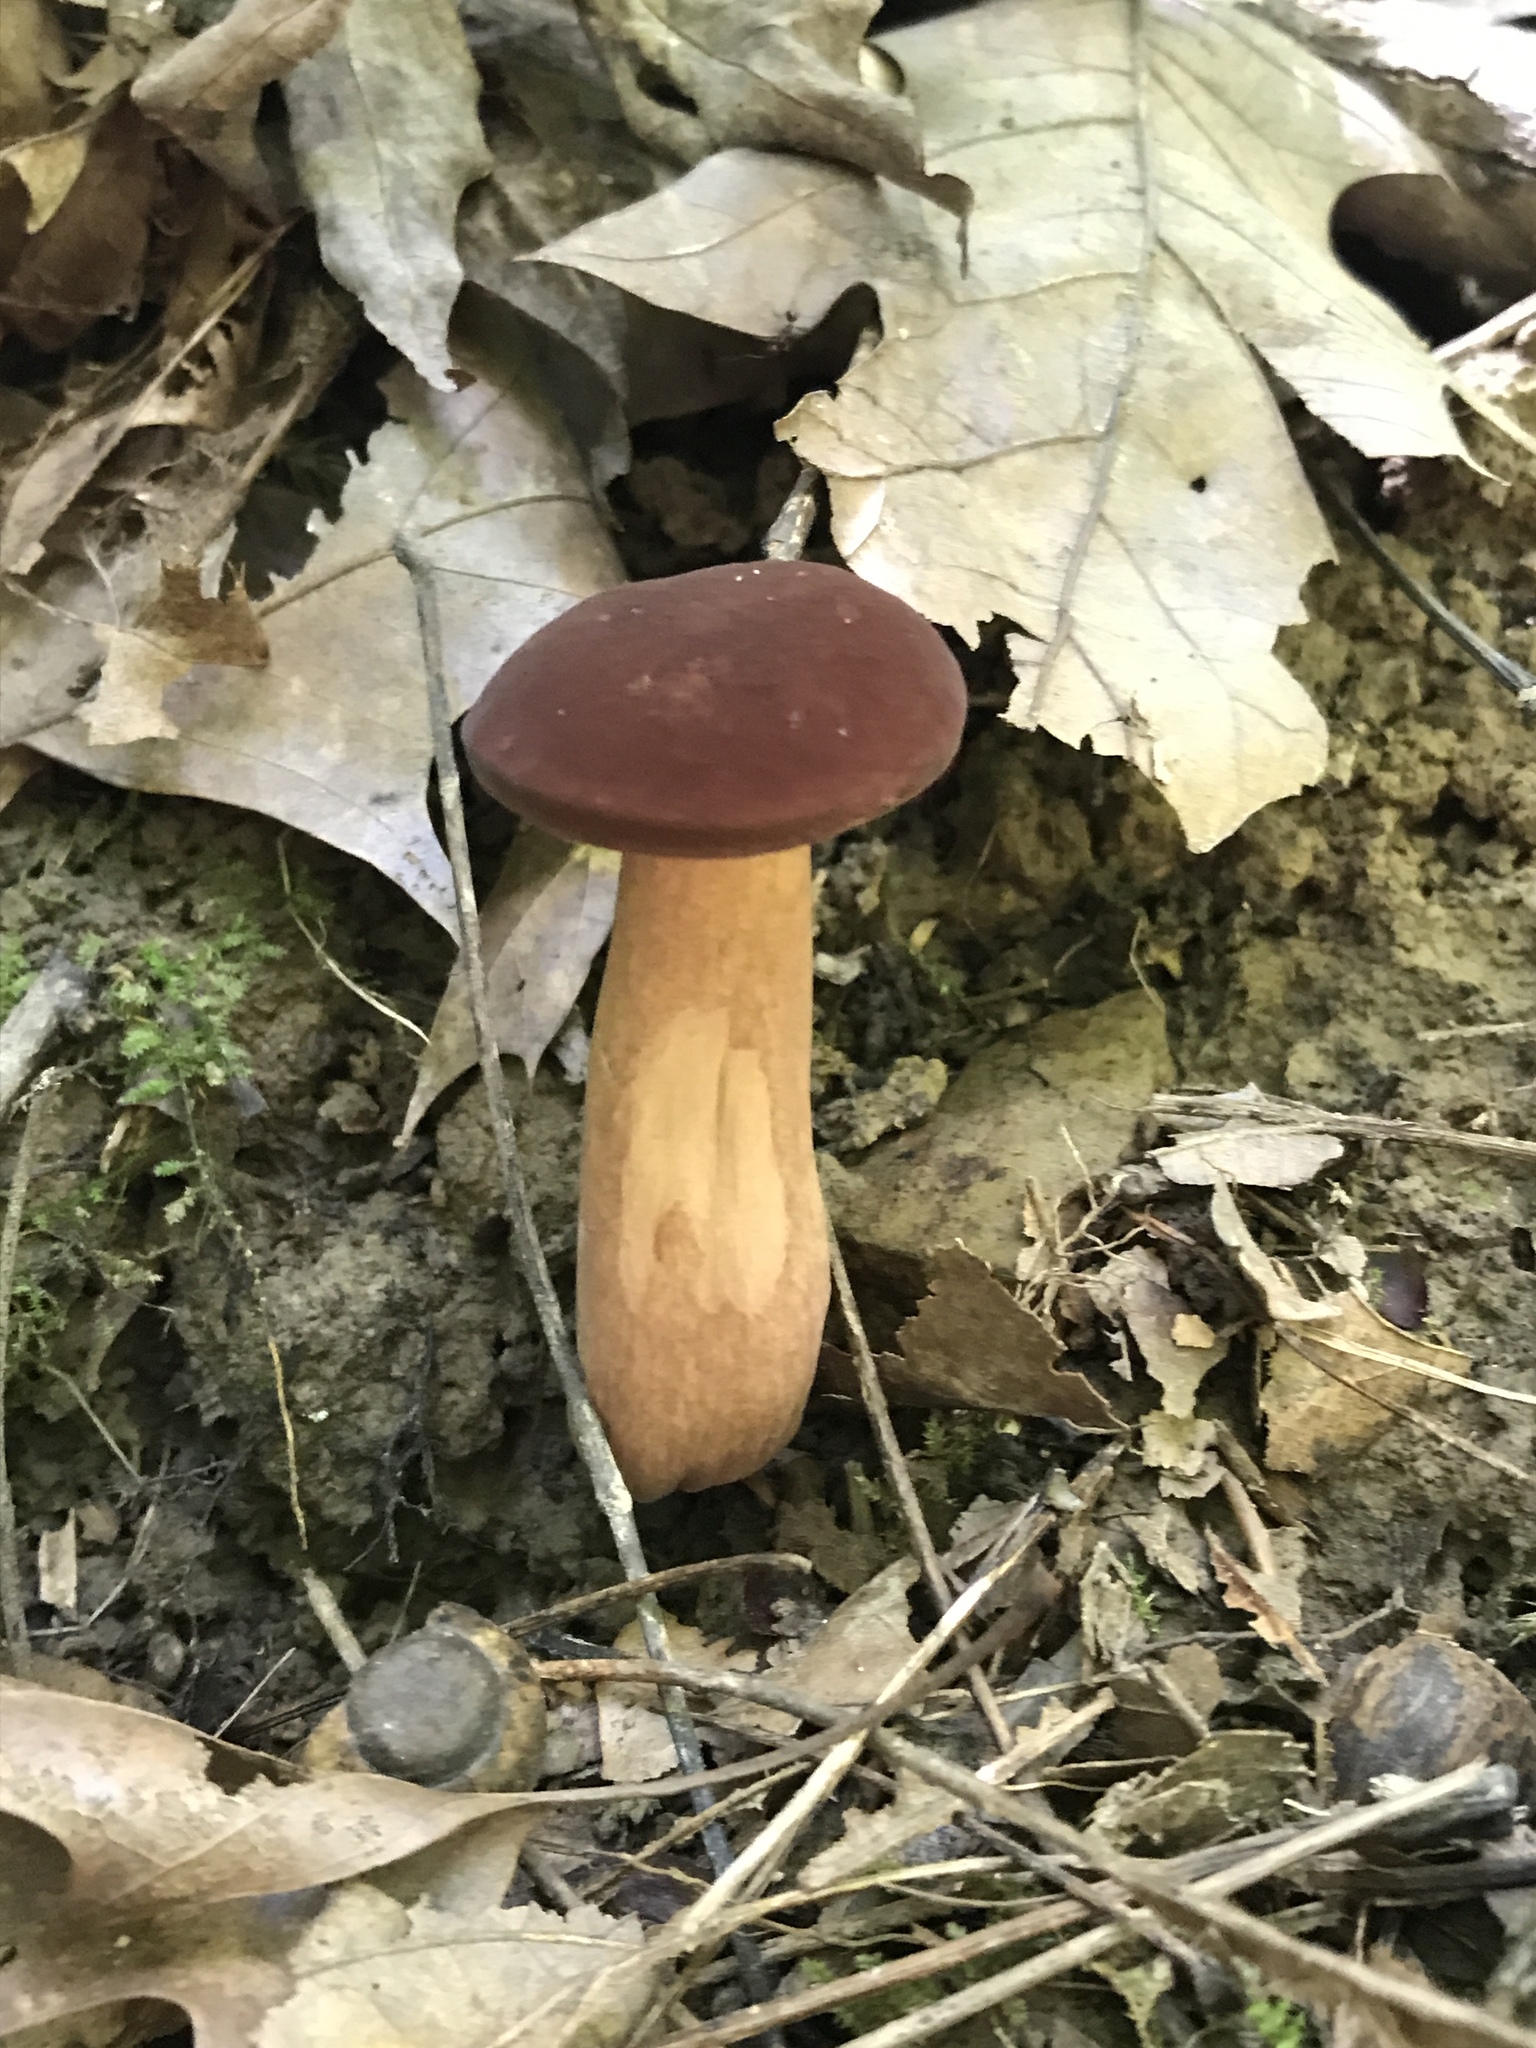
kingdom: Fungi
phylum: Basidiomycota
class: Agaricomycetes
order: Boletales
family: Boletaceae
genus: Tylopilus
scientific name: Tylopilus rubrobrunneus
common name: Reddish brown bitter bolete
